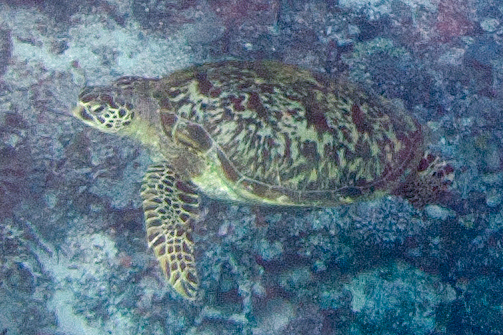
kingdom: Animalia
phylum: Chordata
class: Testudines
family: Cheloniidae
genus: Chelonia
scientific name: Chelonia mydas
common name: Green turtle
